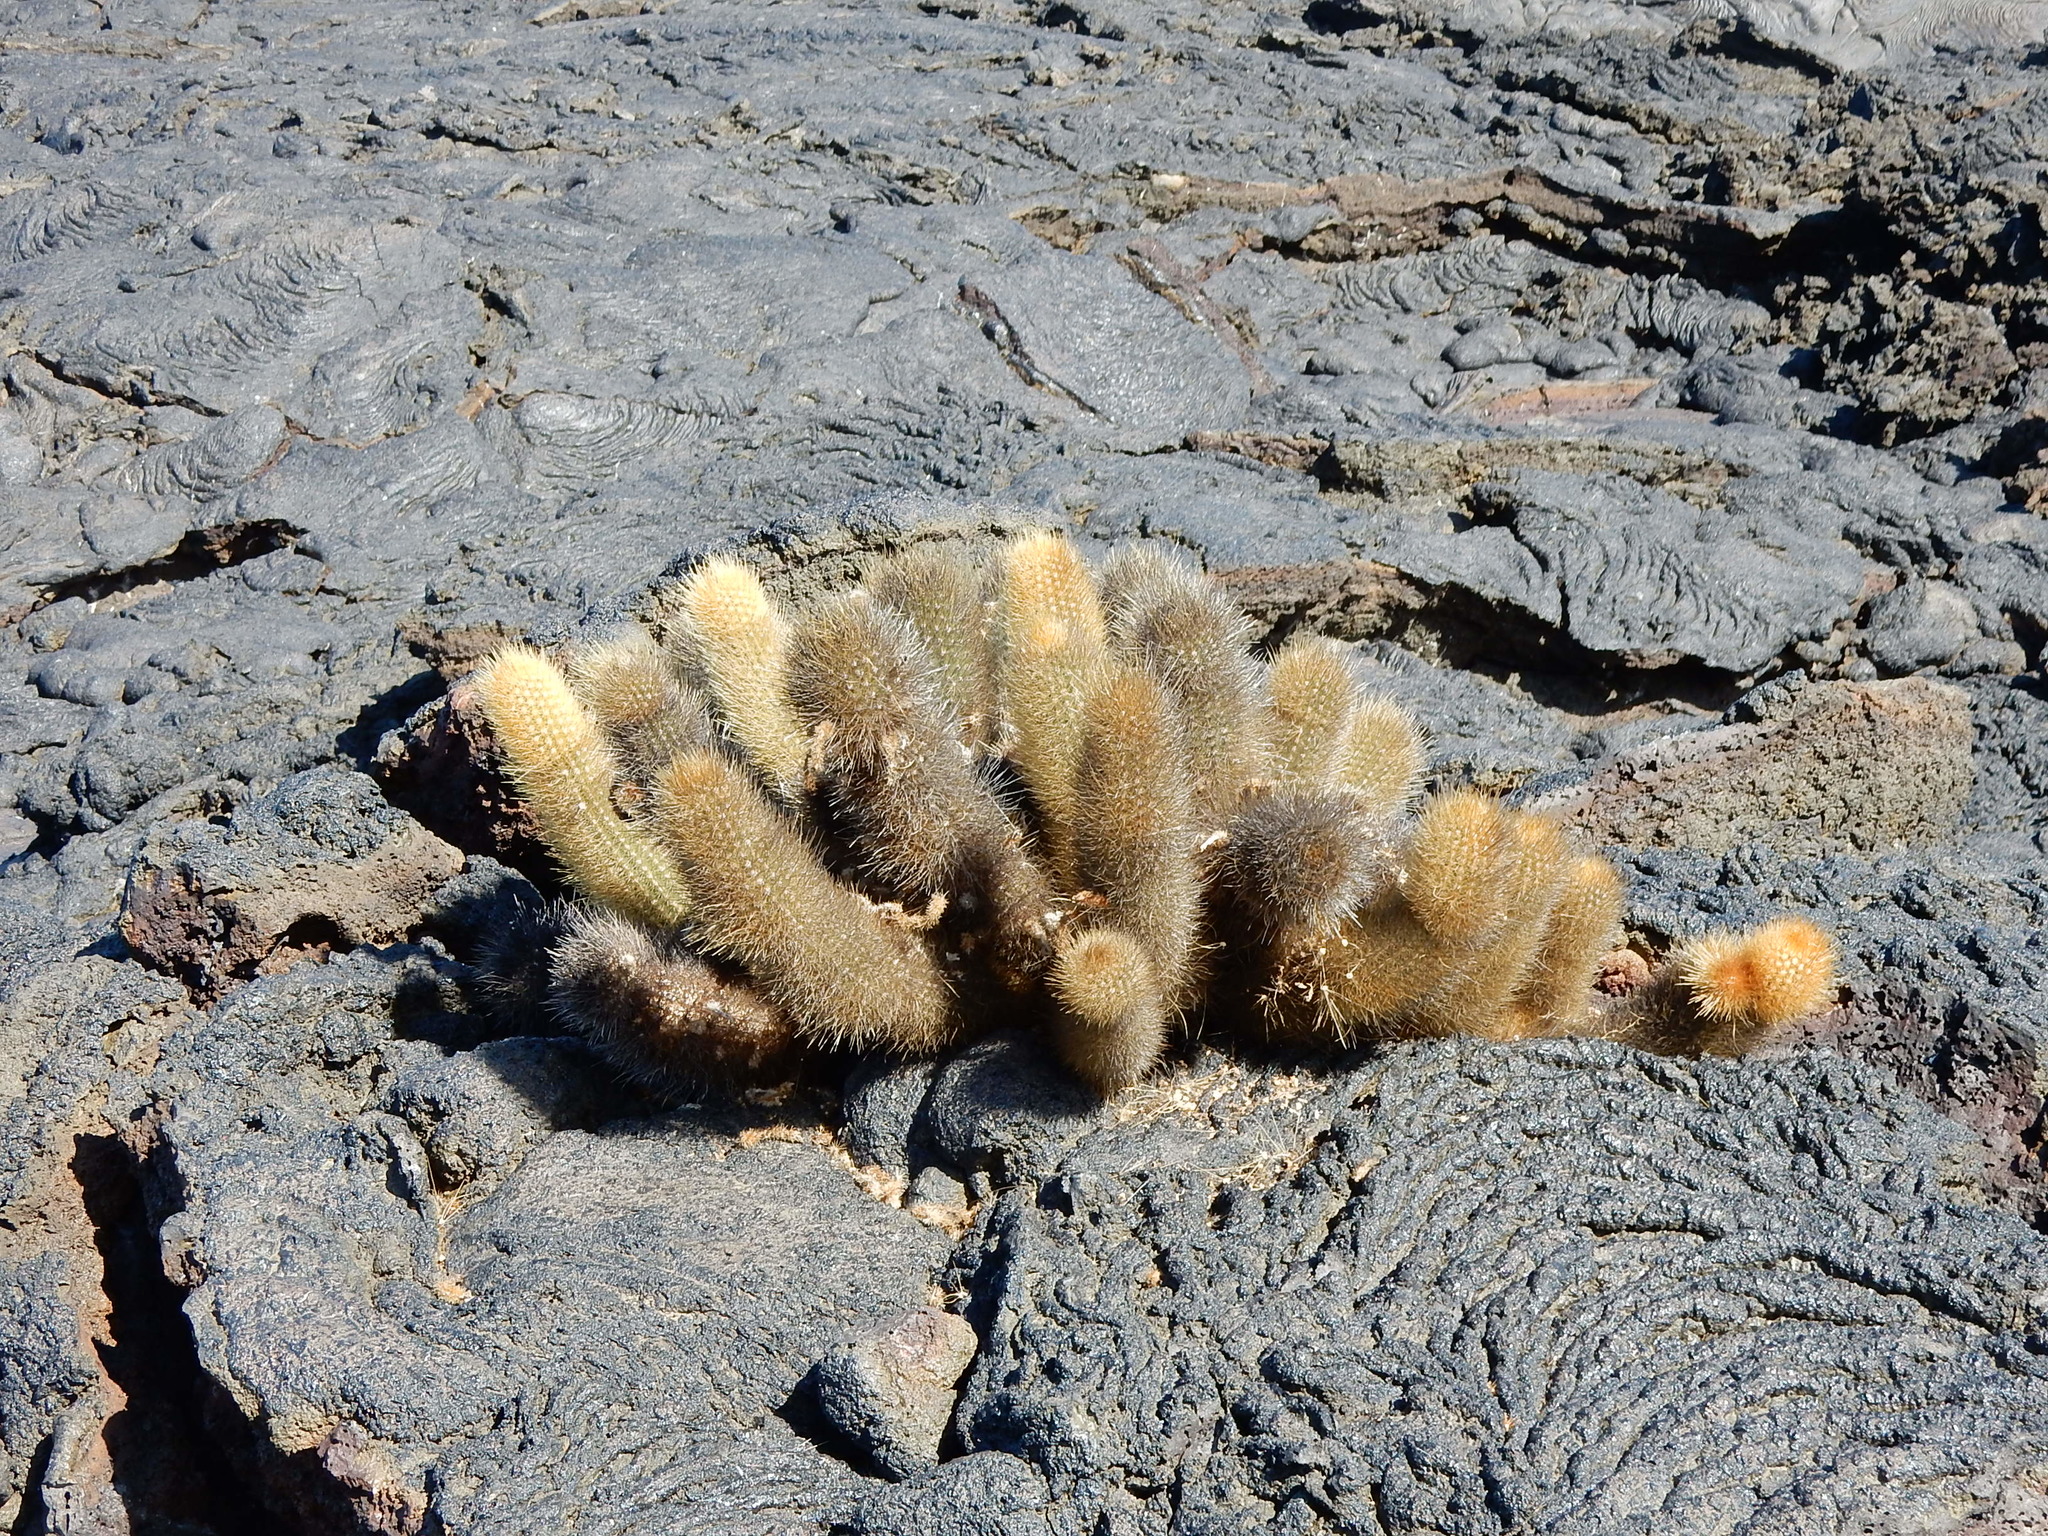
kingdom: Plantae
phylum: Tracheophyta
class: Magnoliopsida
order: Caryophyllales
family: Cactaceae
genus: Brachycereus
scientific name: Brachycereus nesioticus
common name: Lava cactus
